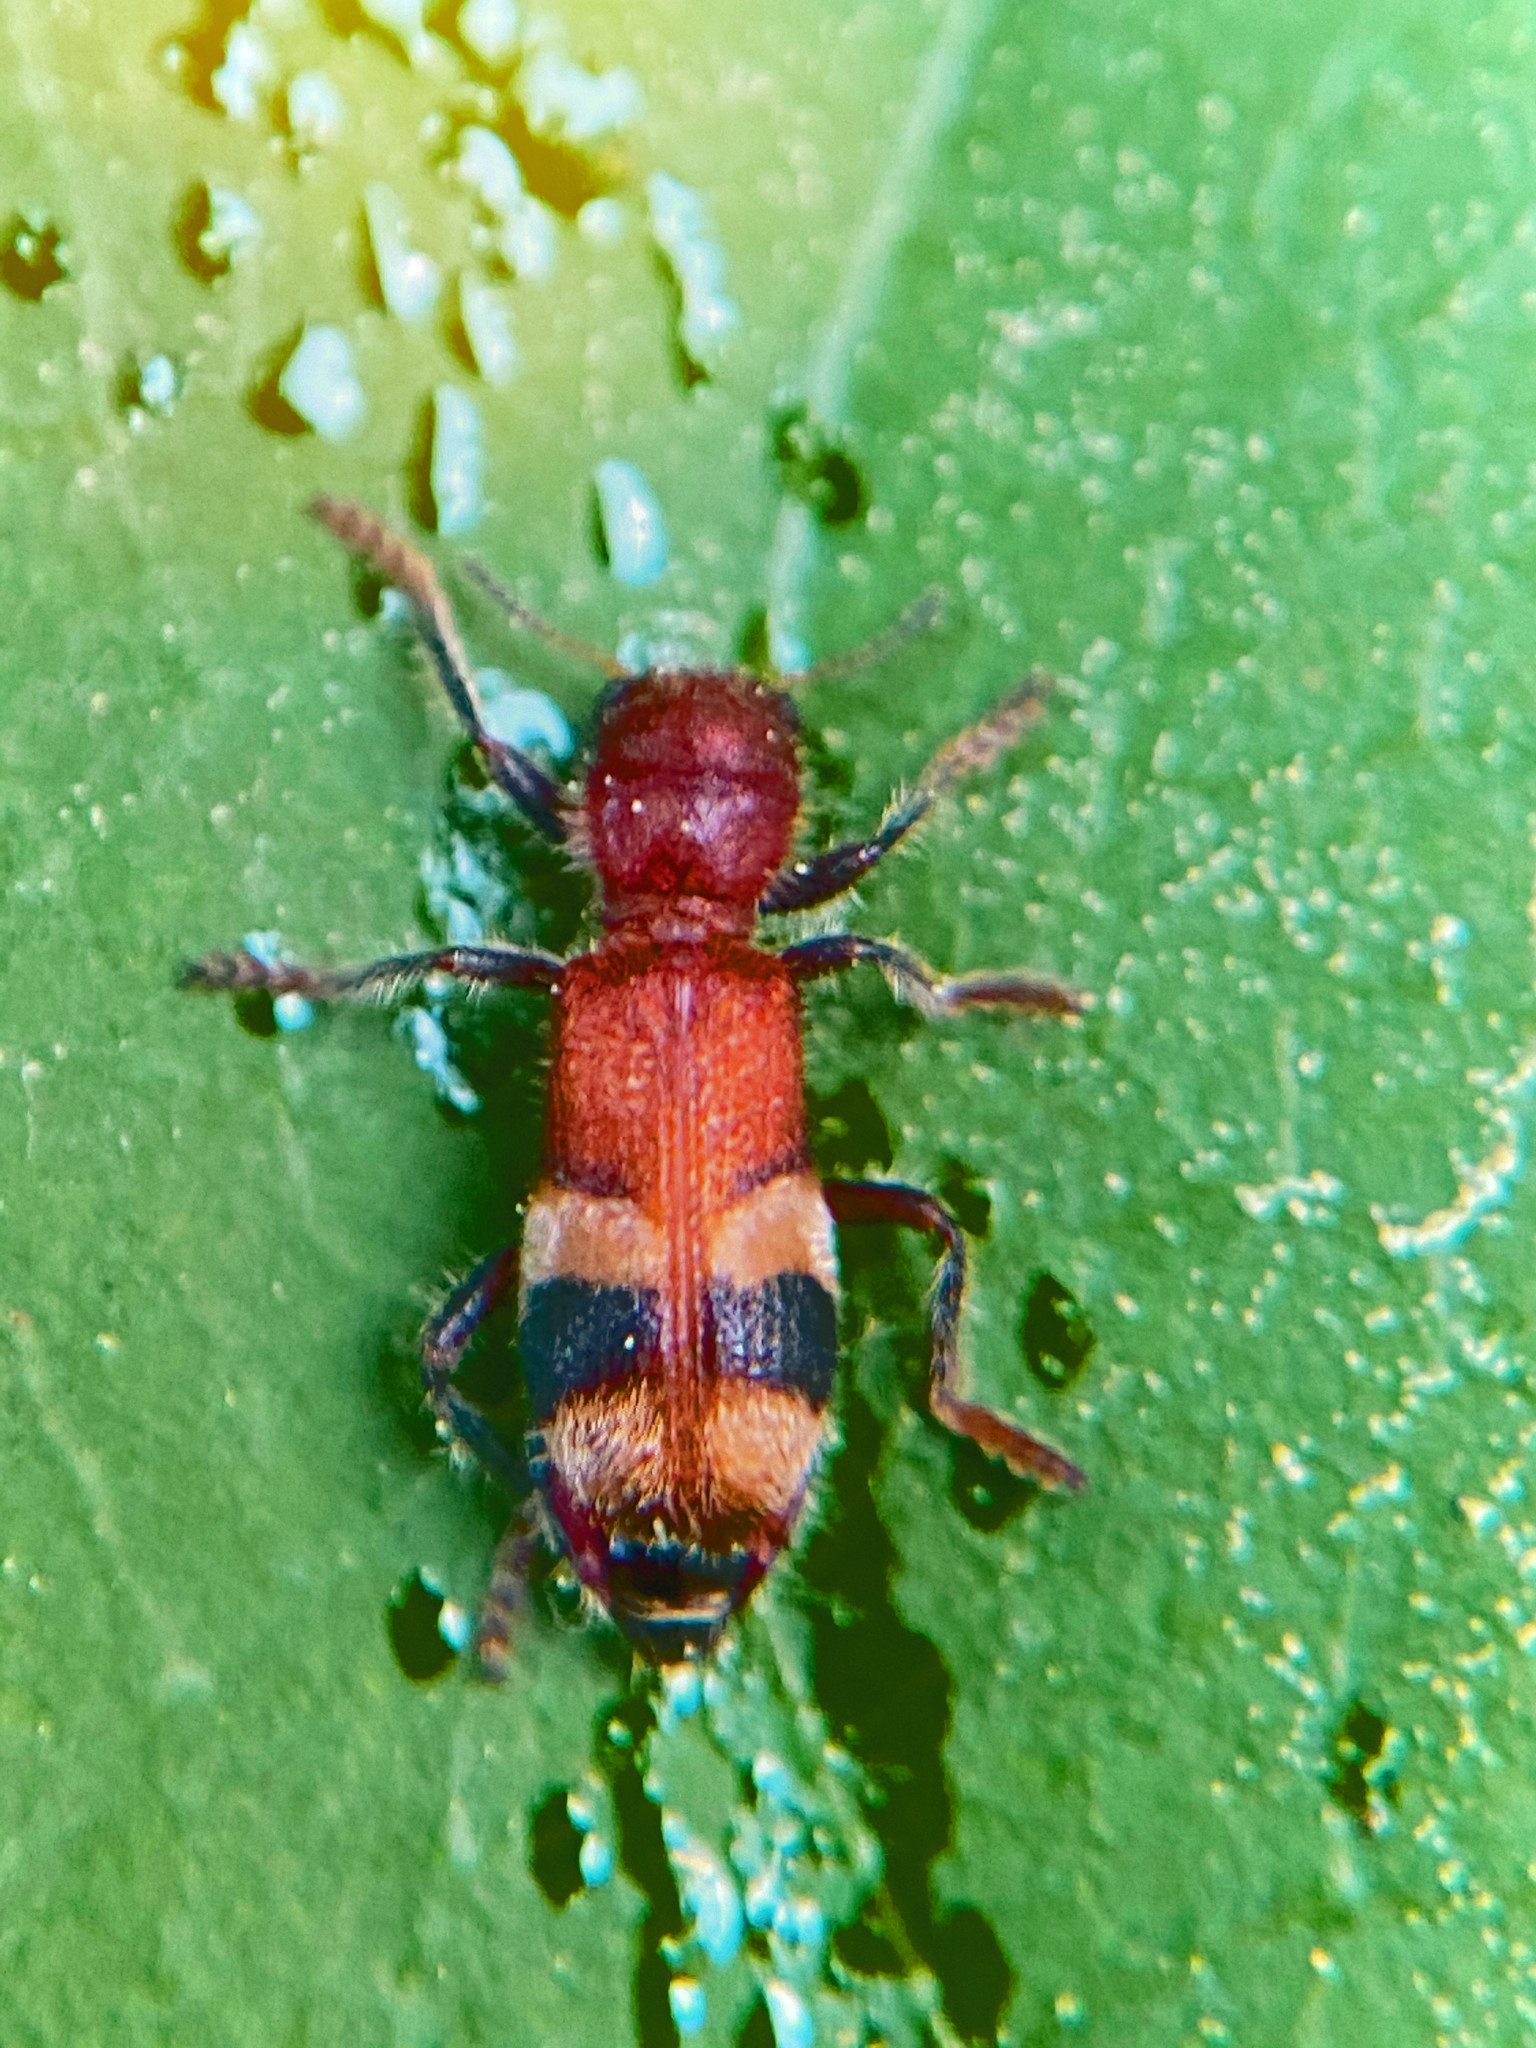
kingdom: Animalia
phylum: Arthropoda
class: Insecta
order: Coleoptera
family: Cleridae
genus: Enoclerus
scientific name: Enoclerus rosmarus
